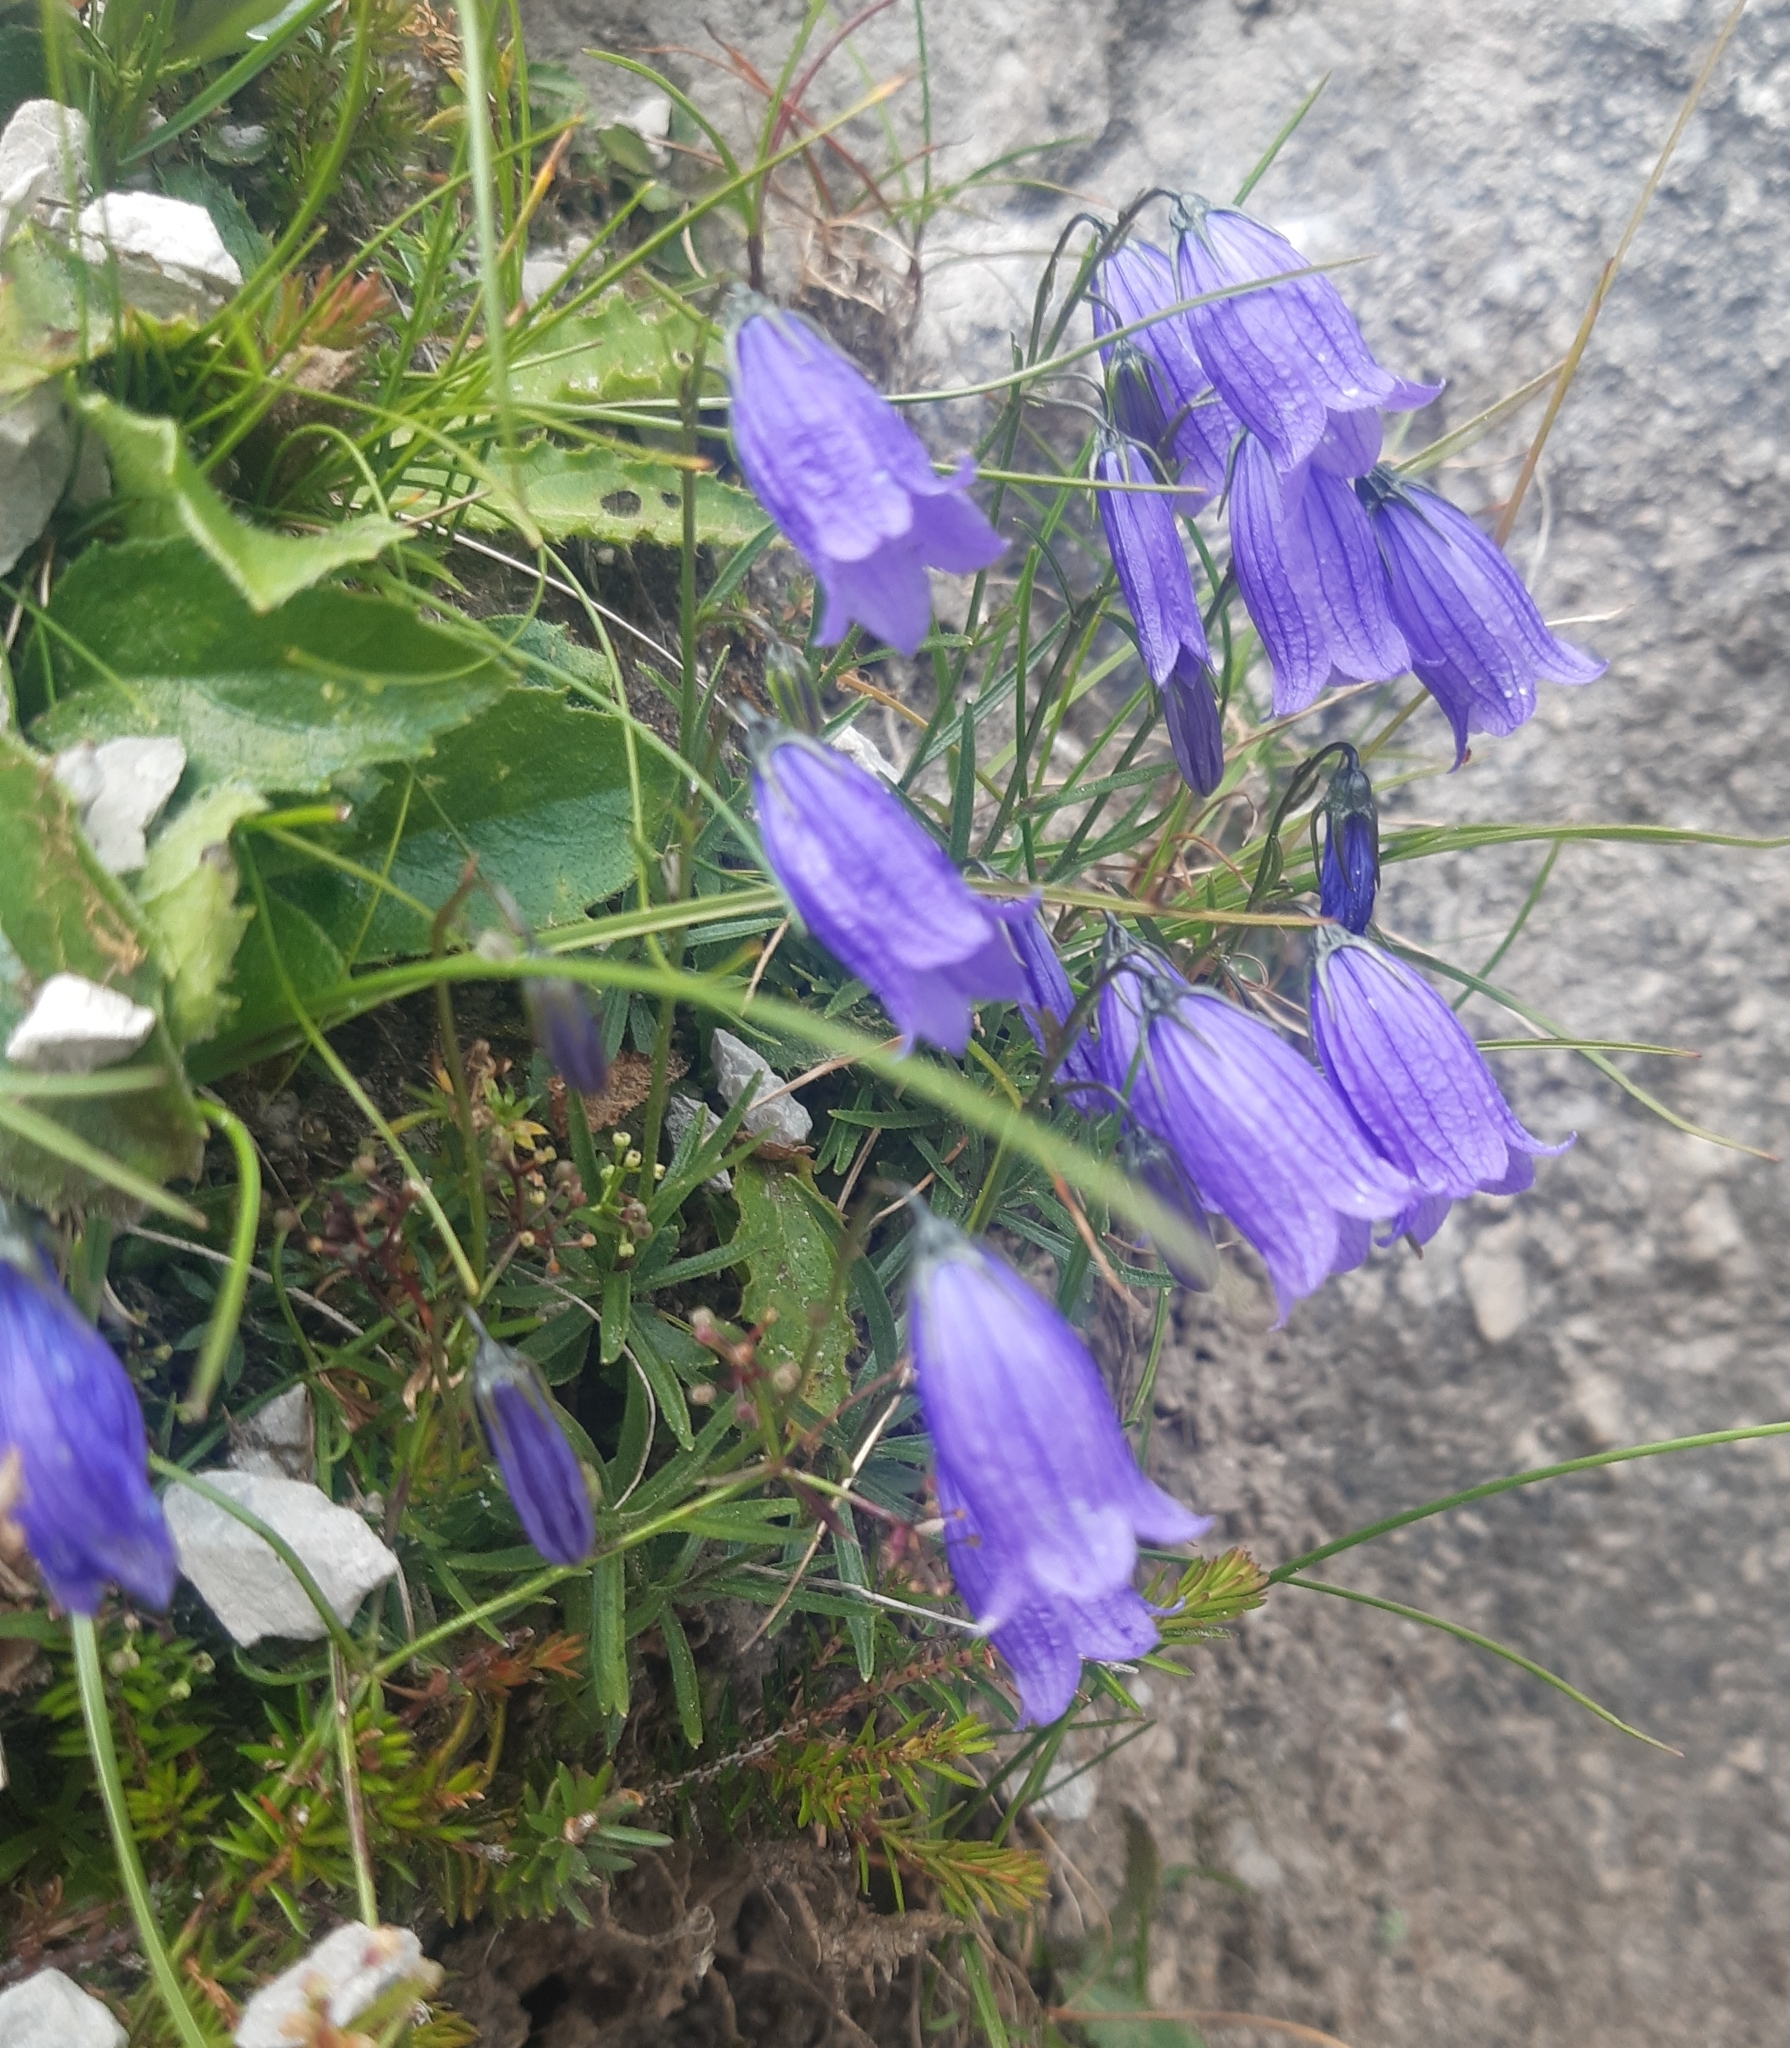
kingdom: Plantae
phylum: Tracheophyta
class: Magnoliopsida
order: Asterales
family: Campanulaceae
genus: Campanula
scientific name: Campanula cespitosa
